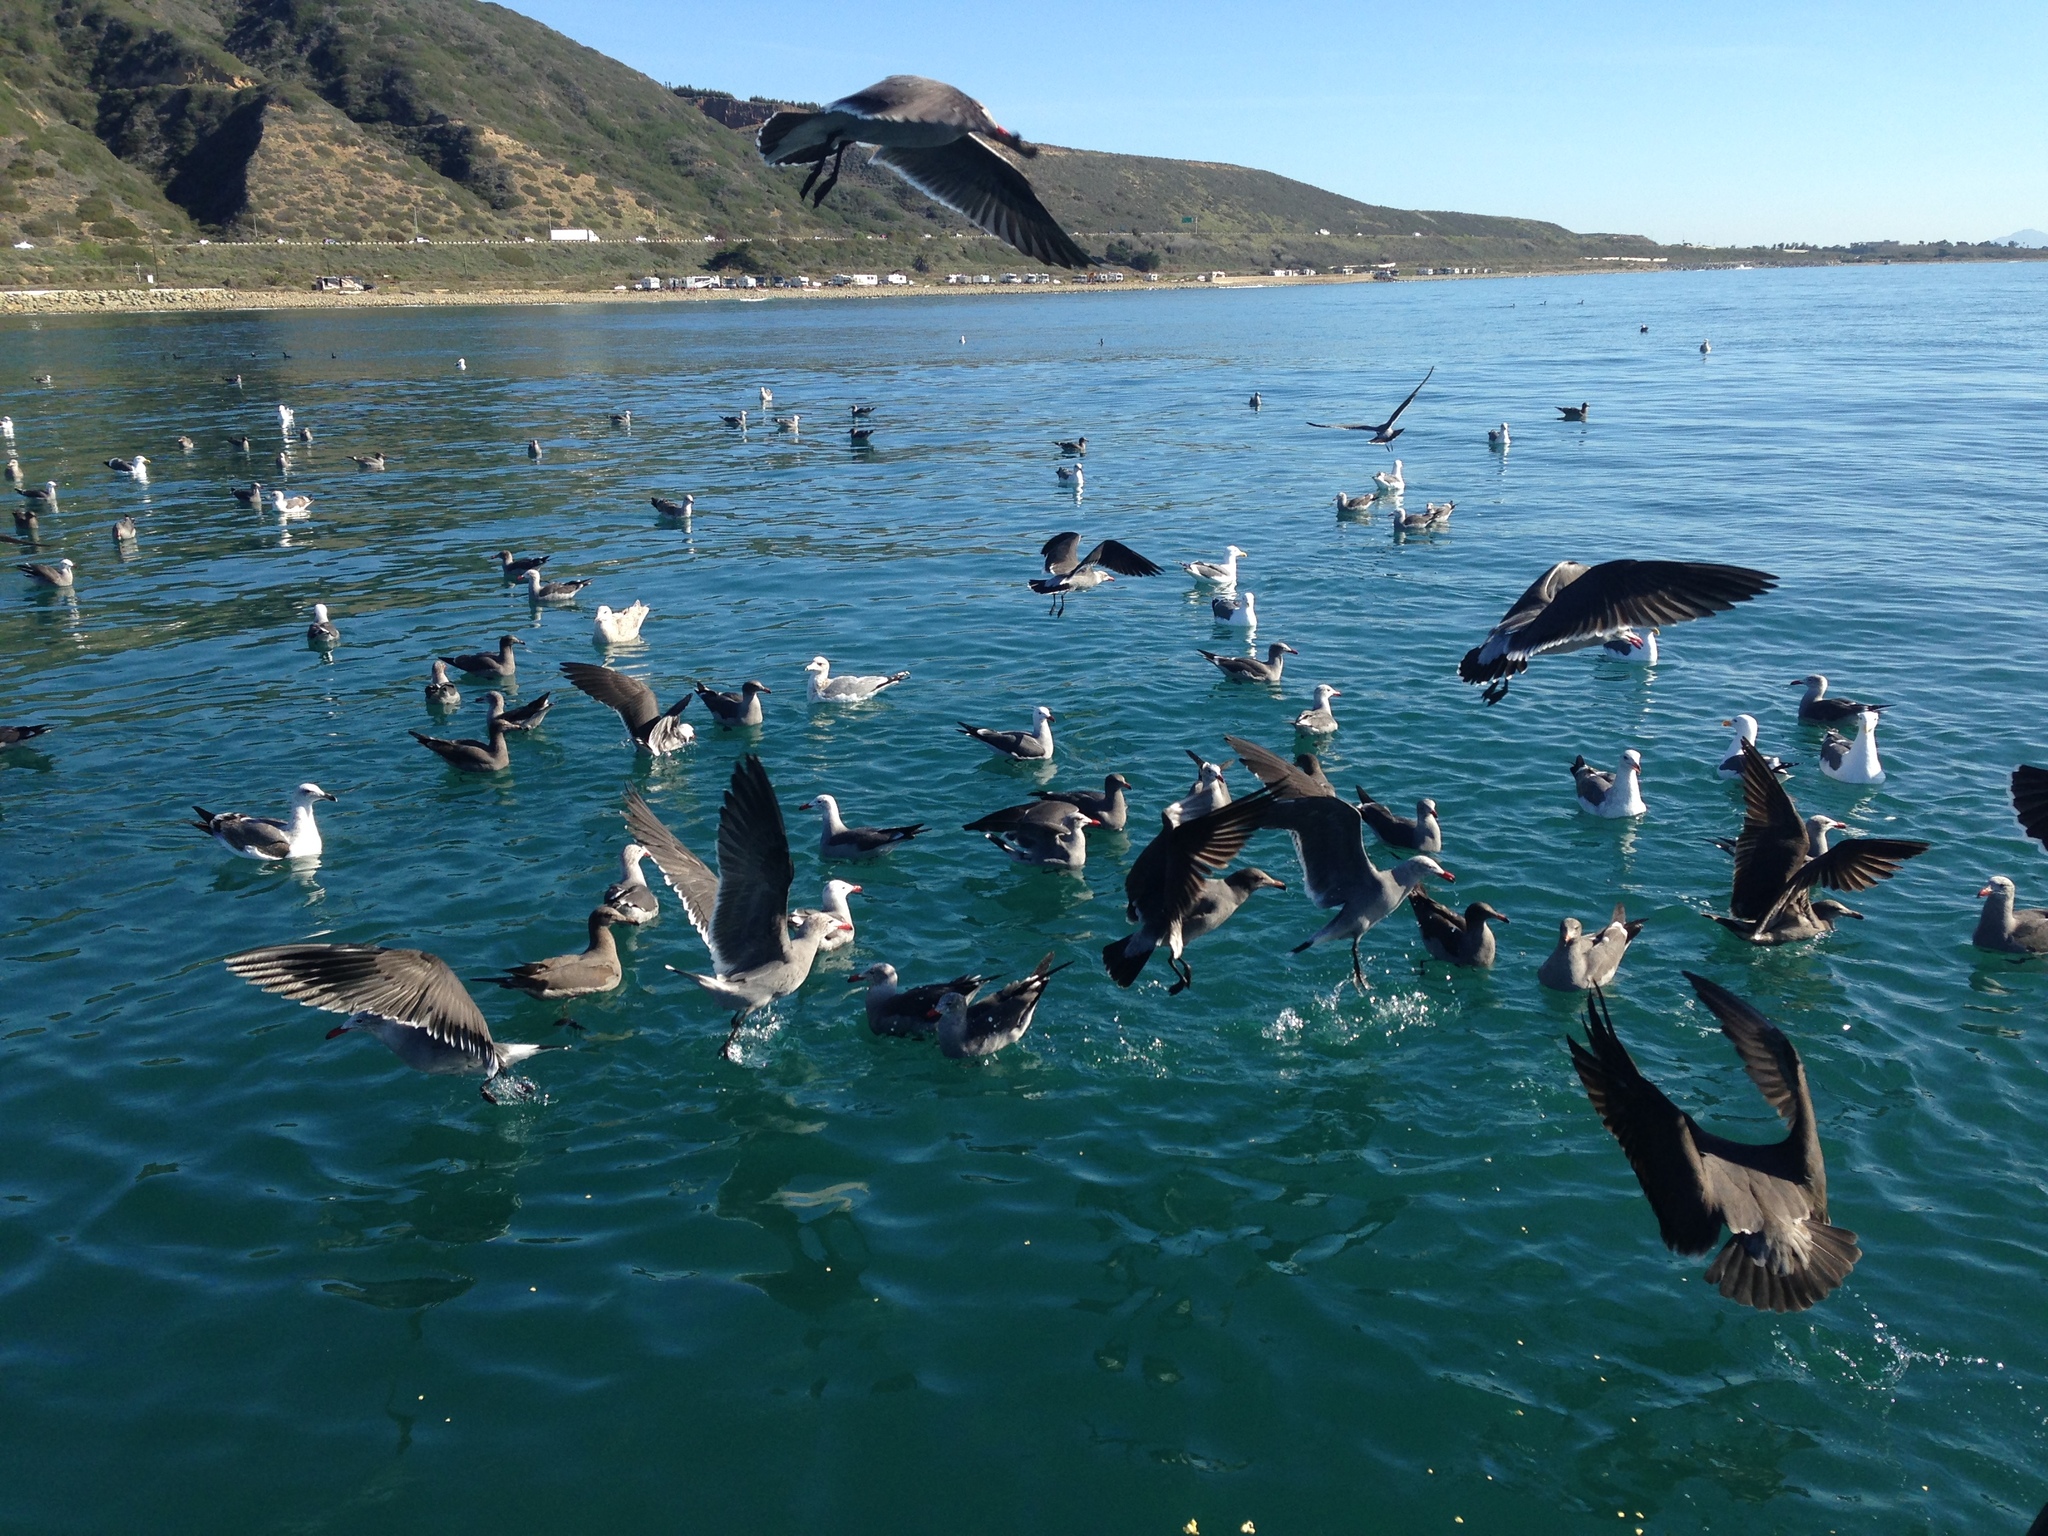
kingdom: Animalia
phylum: Chordata
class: Aves
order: Charadriiformes
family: Laridae
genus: Larus
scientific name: Larus heermanni
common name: Heermann's gull
